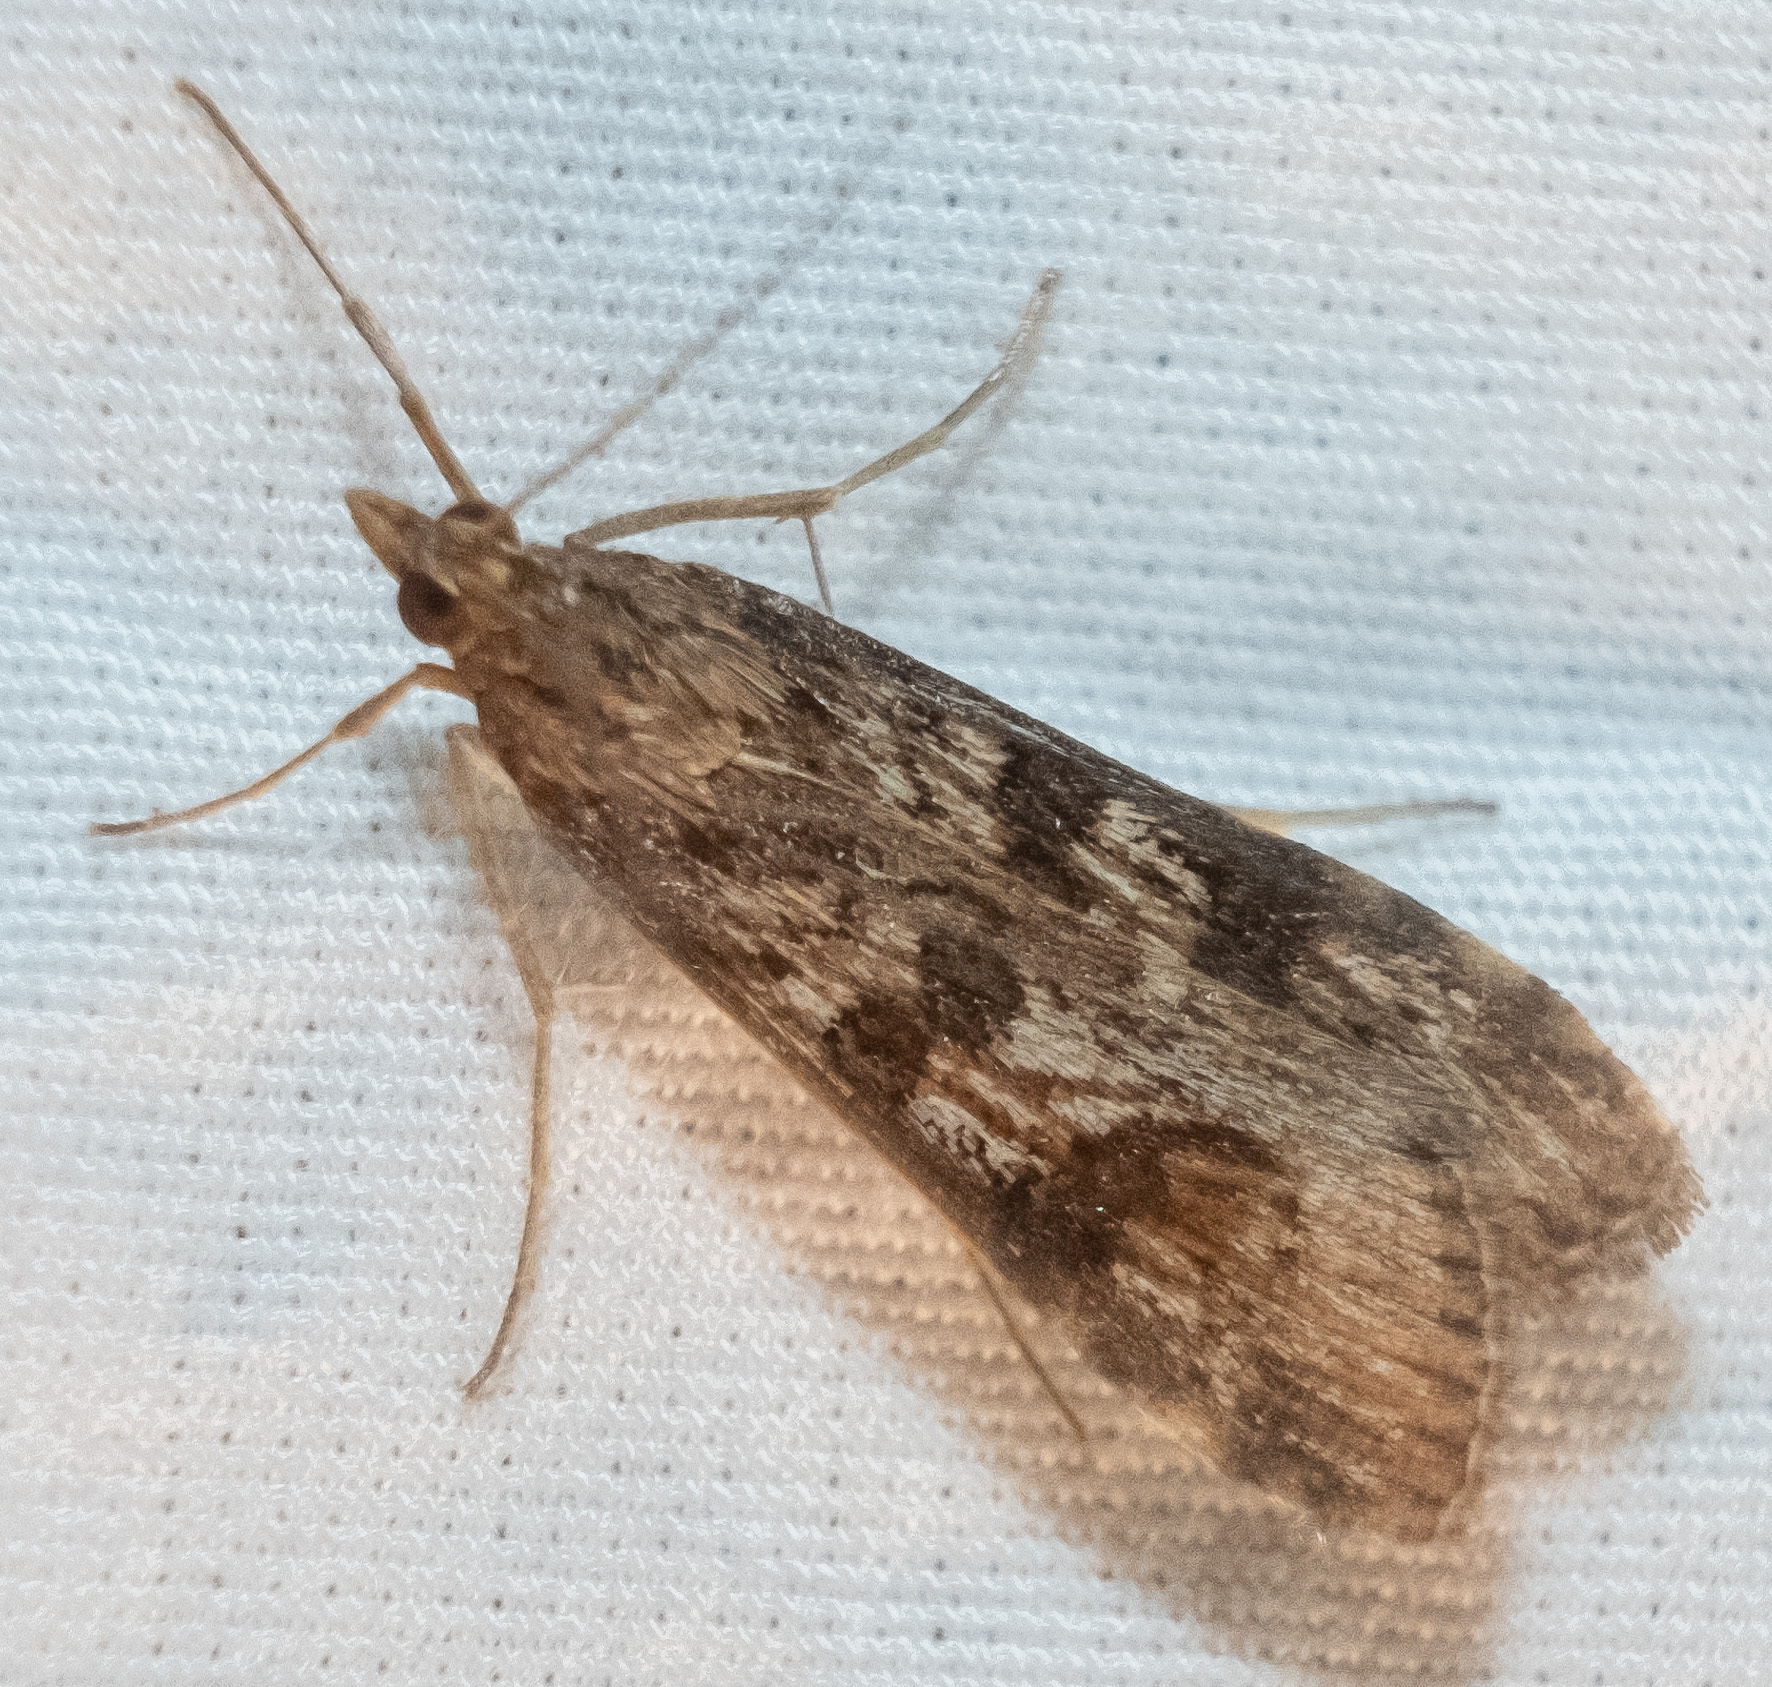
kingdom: Animalia
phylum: Arthropoda
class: Insecta
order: Lepidoptera
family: Crambidae
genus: Nomophila
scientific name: Nomophila nearctica
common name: American rush veneer
